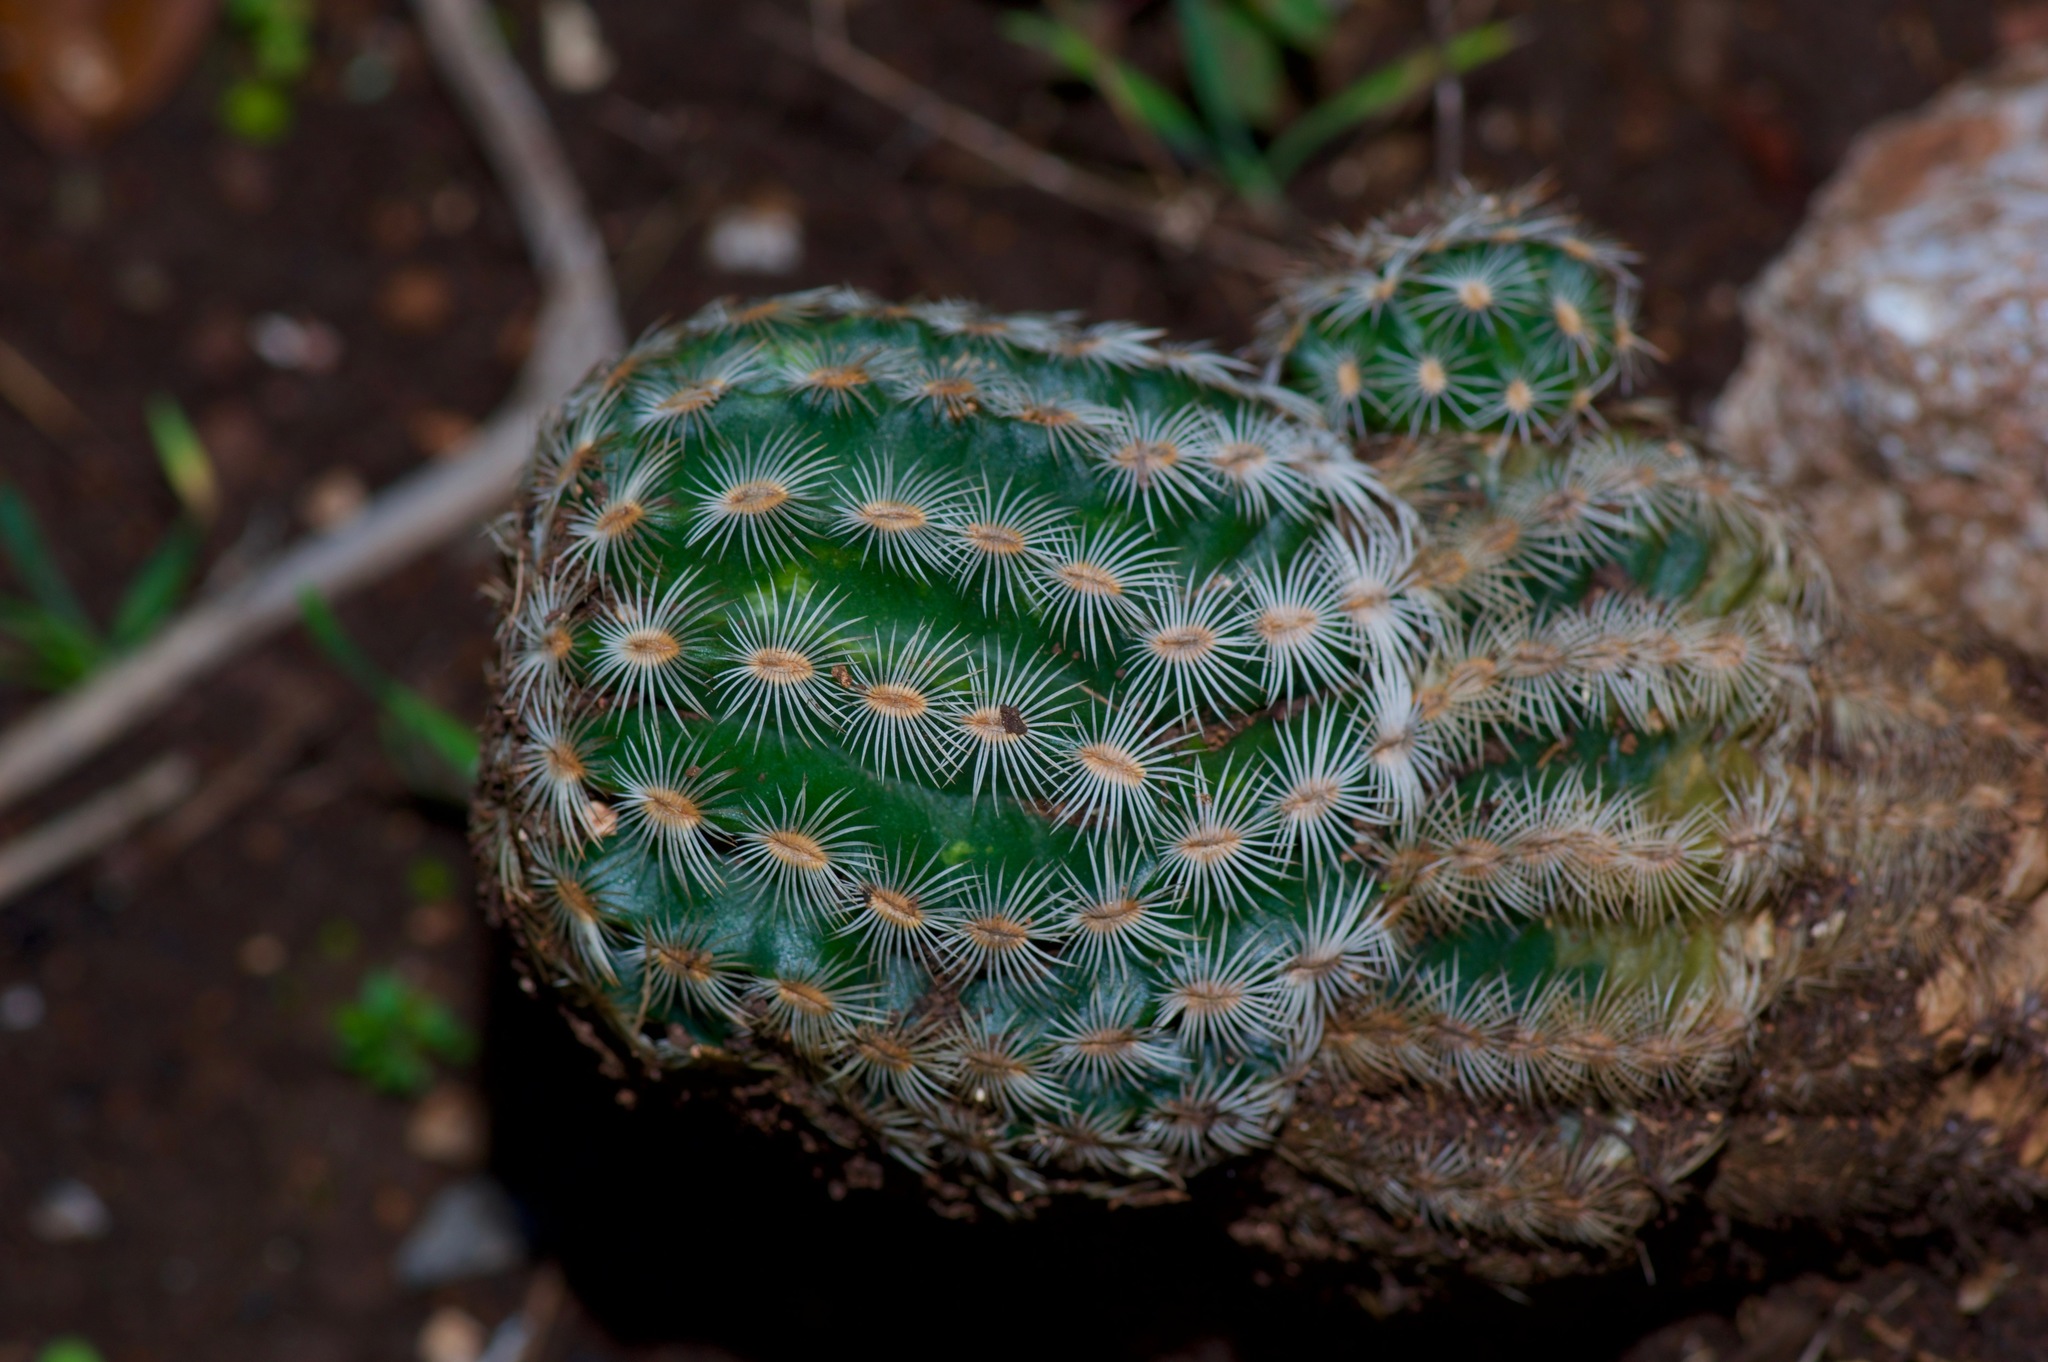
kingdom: Plantae
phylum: Tracheophyta
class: Magnoliopsida
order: Caryophyllales
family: Cactaceae
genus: Echinocereus
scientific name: Echinocereus reichenbachii
